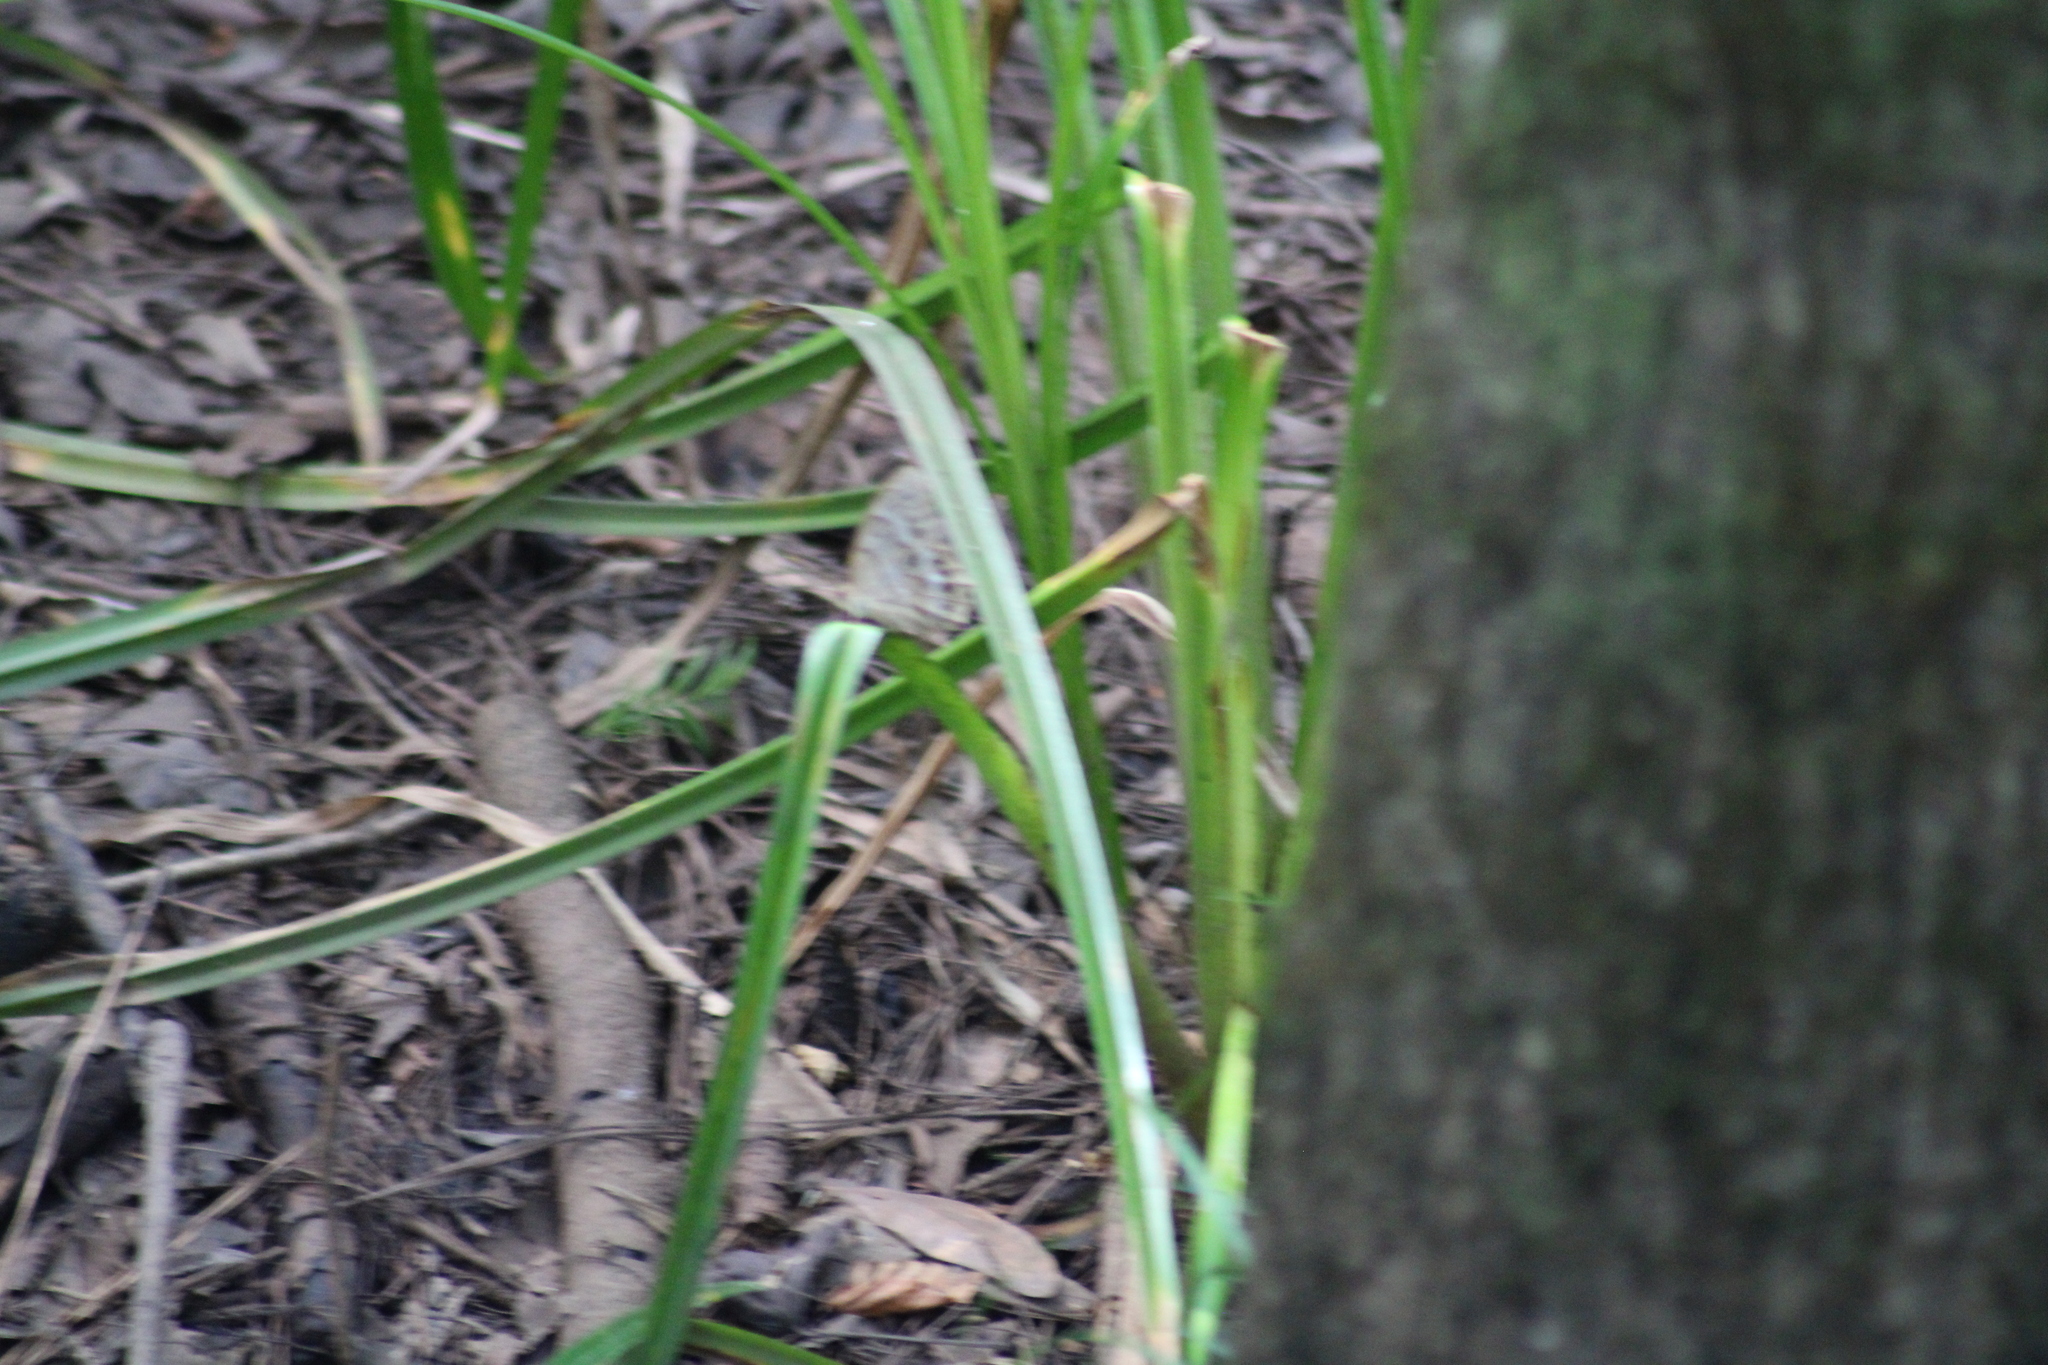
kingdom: Animalia
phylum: Arthropoda
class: Insecta
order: Lepidoptera
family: Nymphalidae
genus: Enodia
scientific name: Enodia portlandia
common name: Southern pearly-eye
